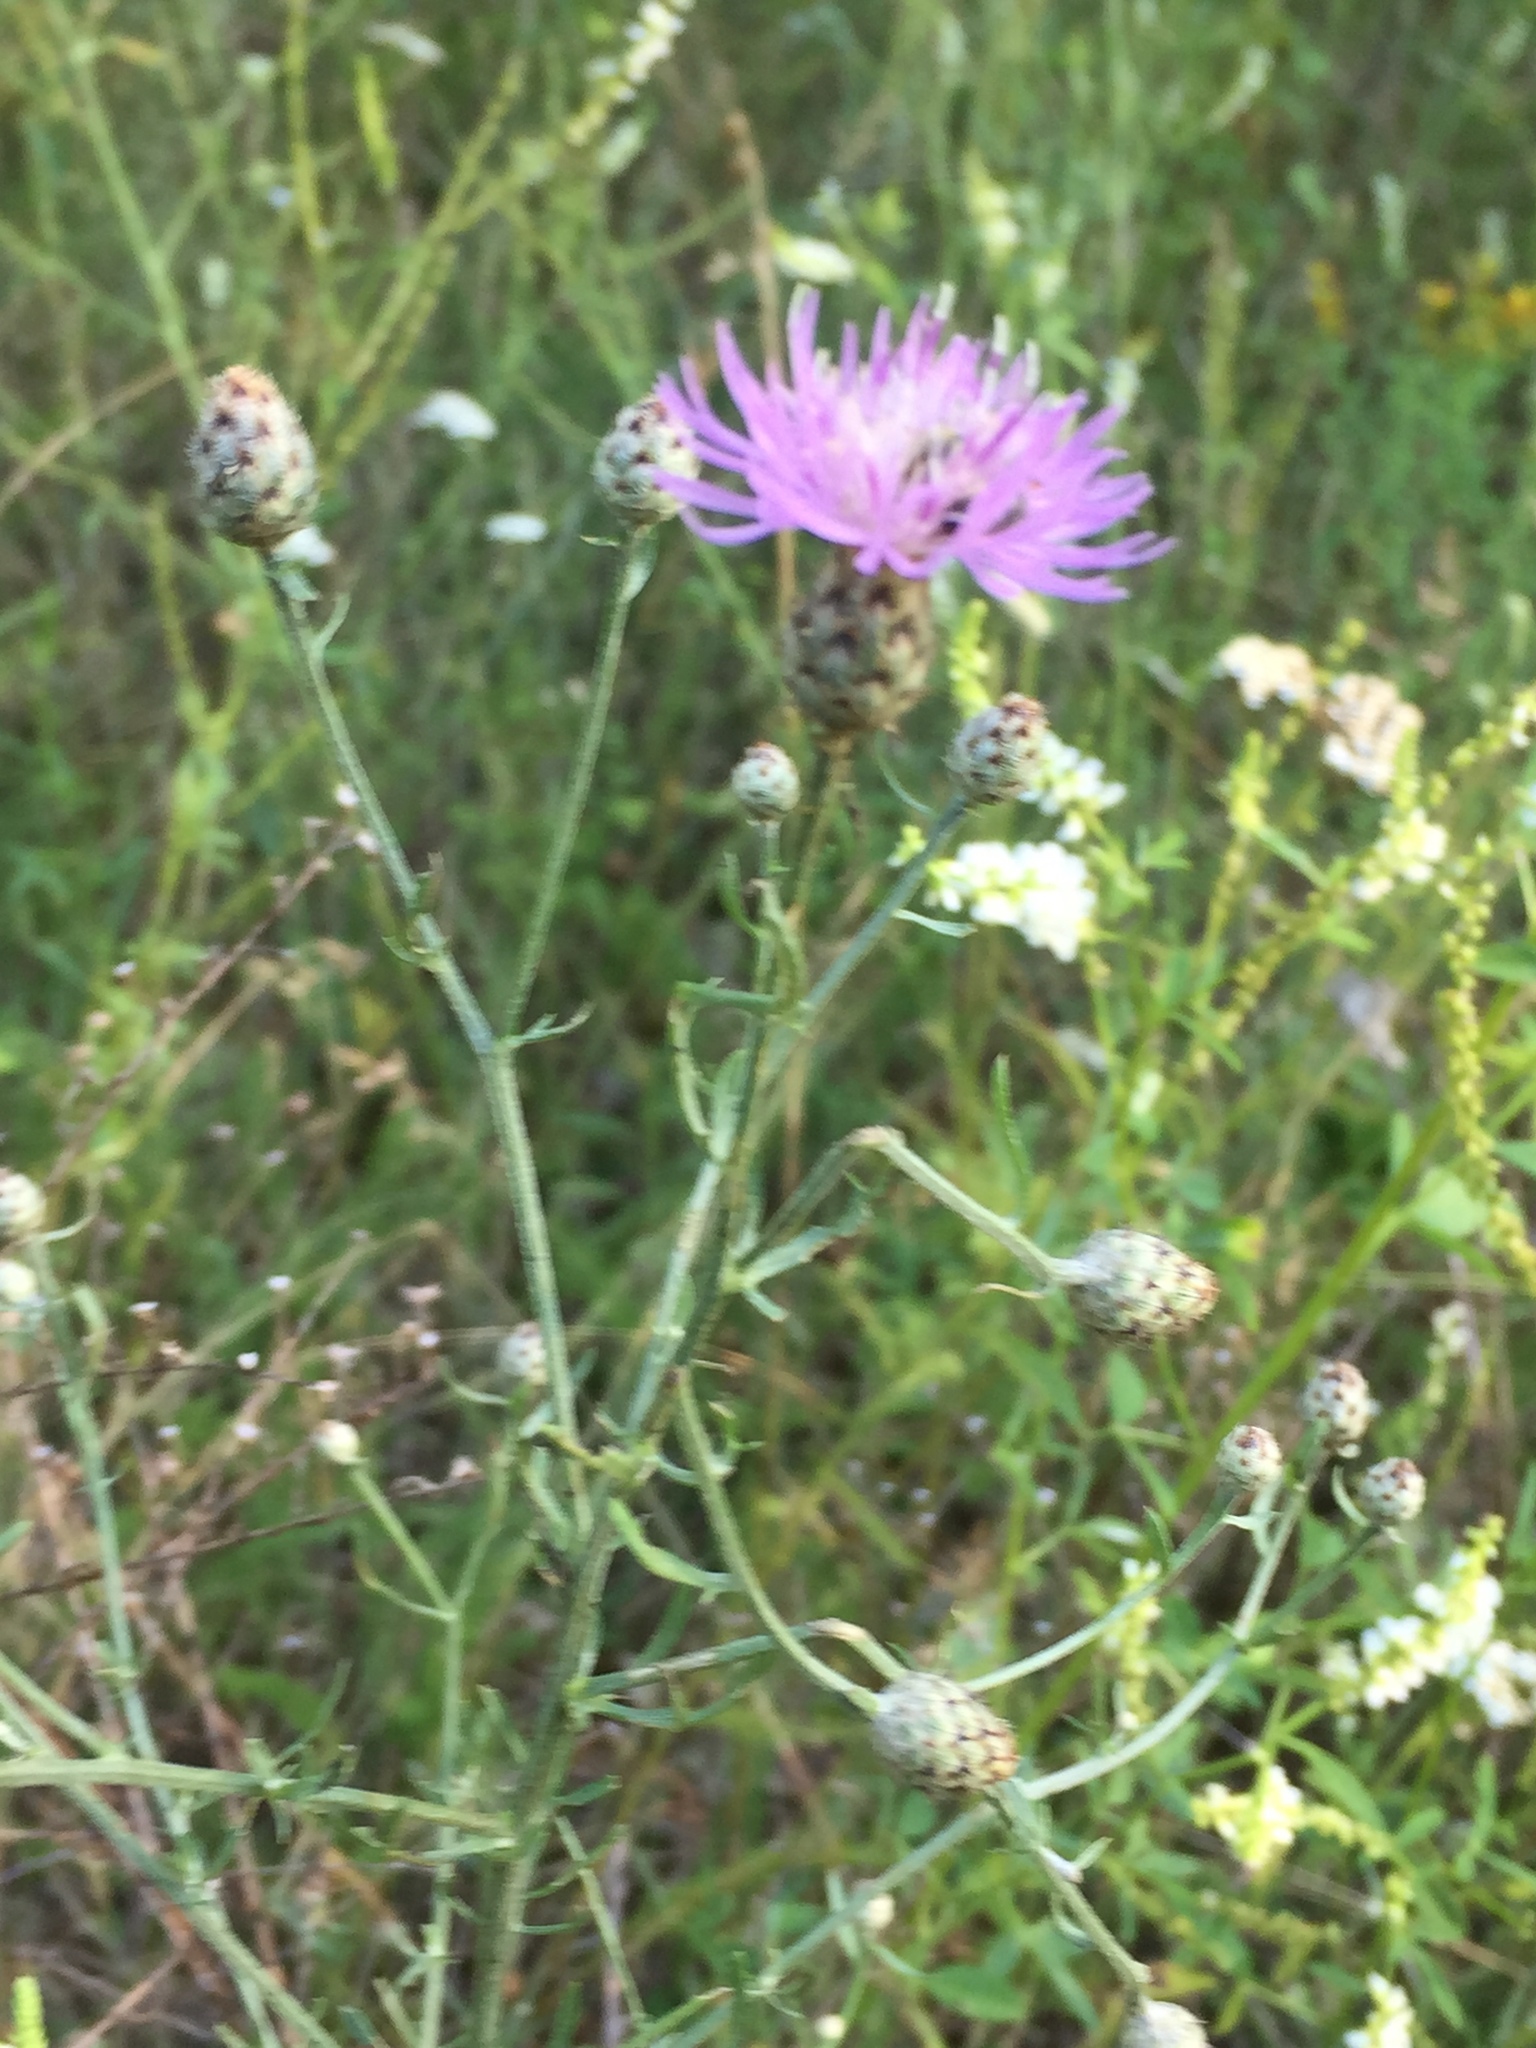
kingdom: Plantae
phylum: Tracheophyta
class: Magnoliopsida
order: Asterales
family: Asteraceae
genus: Centaurea
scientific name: Centaurea stoebe
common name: Spotted knapweed
